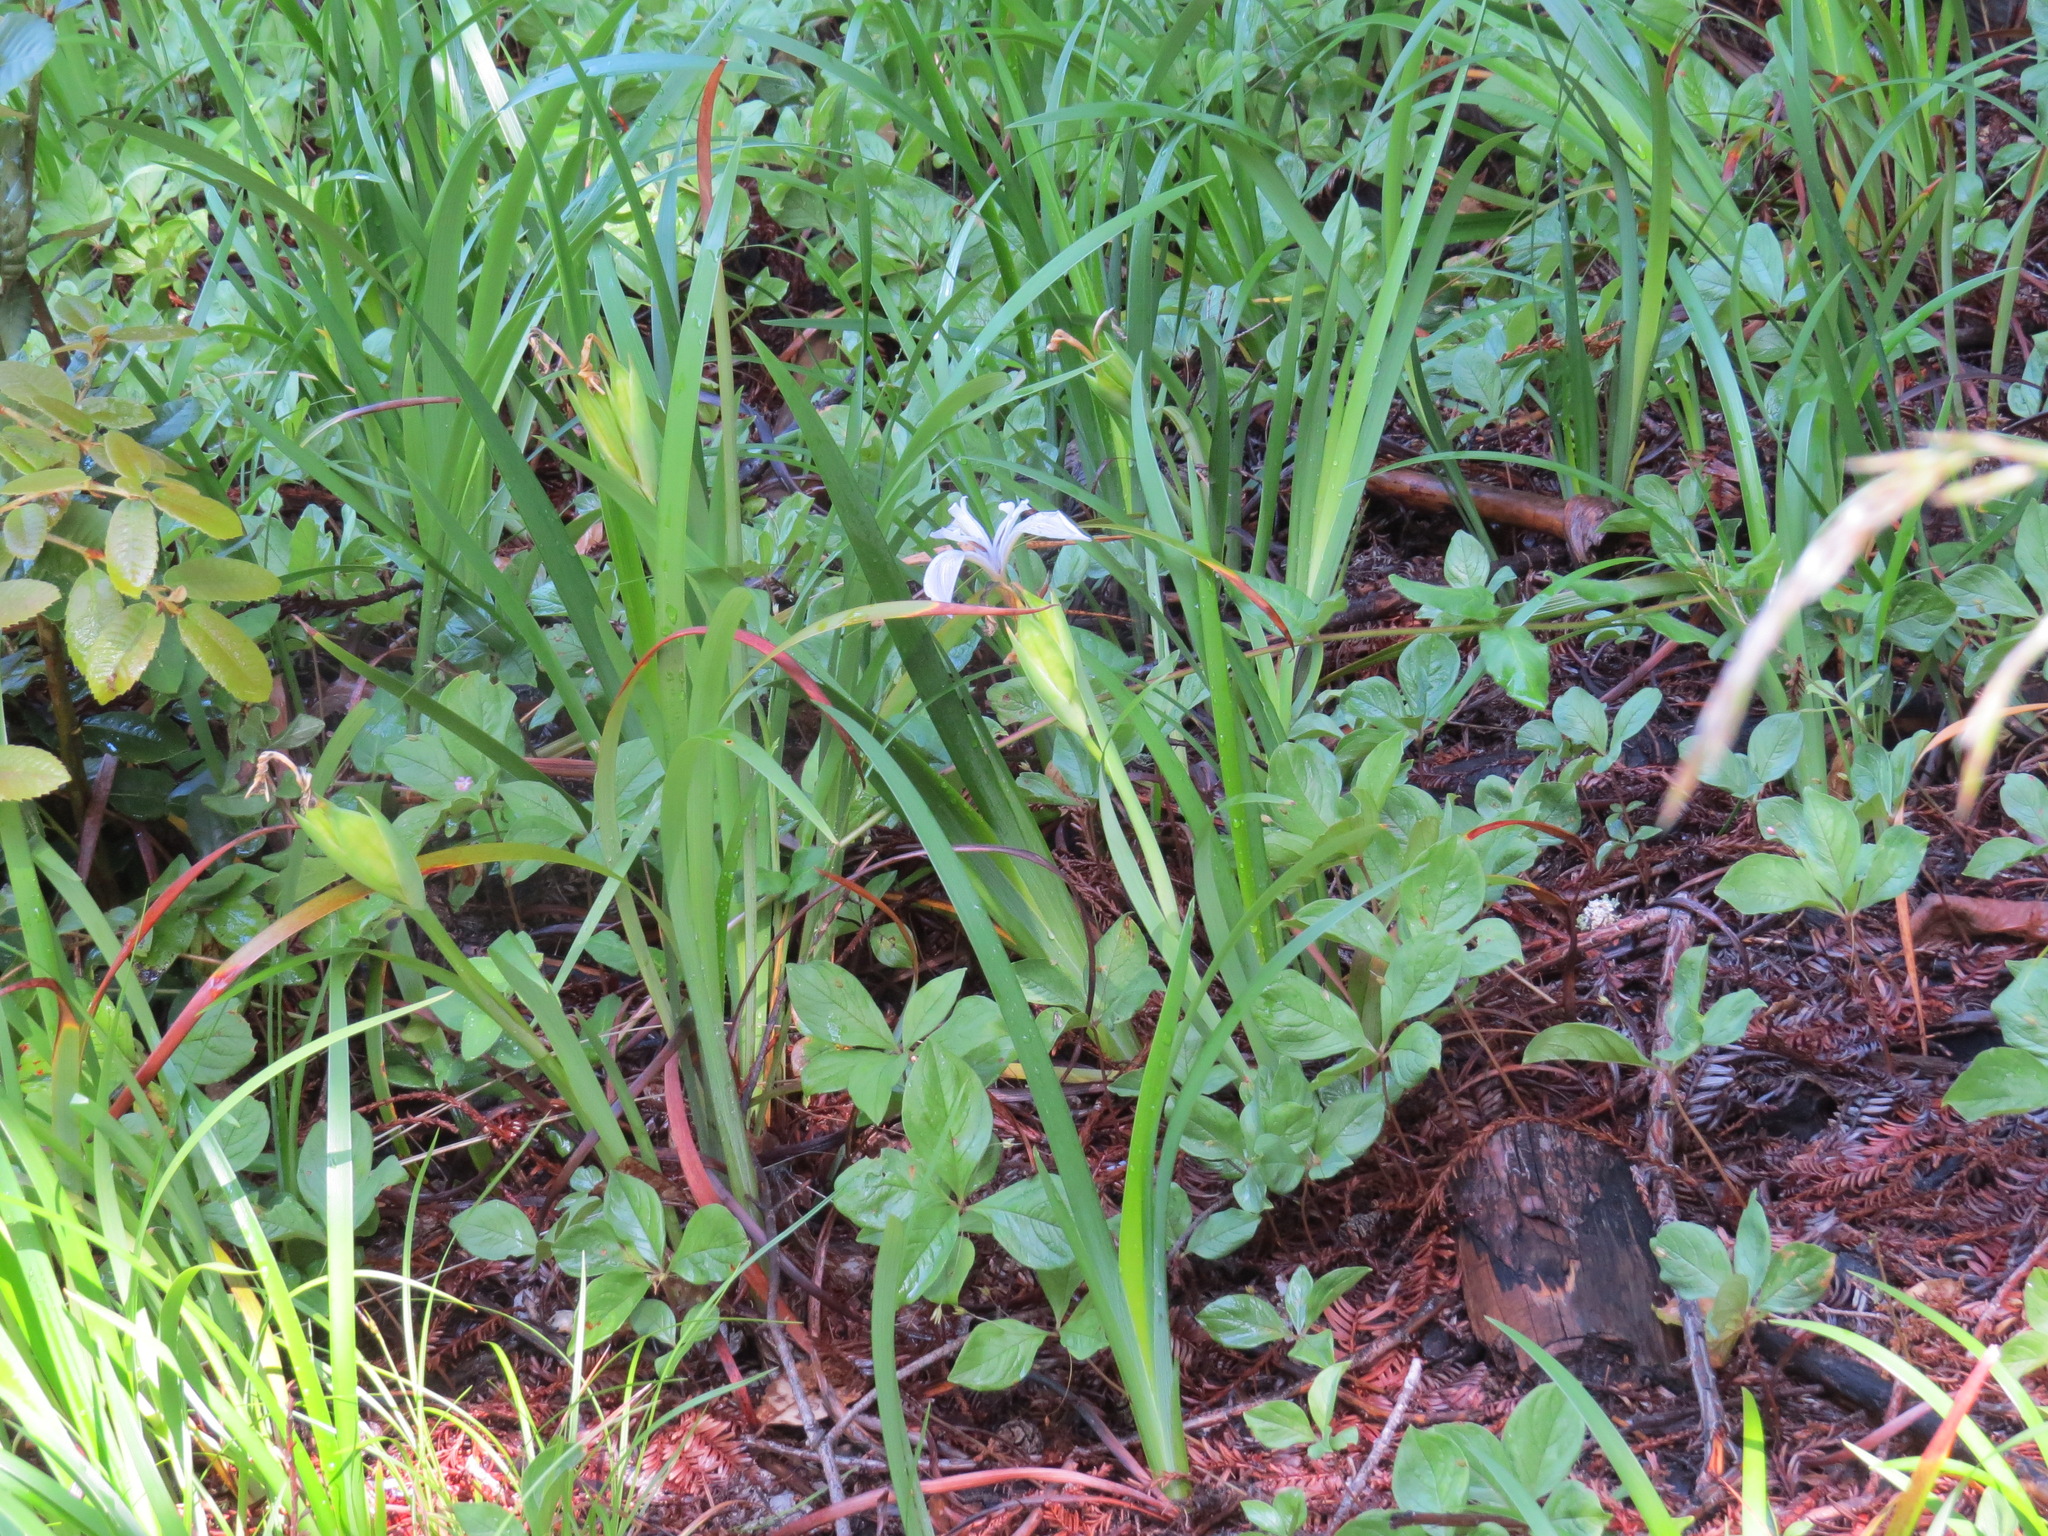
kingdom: Plantae
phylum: Tracheophyta
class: Liliopsida
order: Asparagales
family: Iridaceae
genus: Iris
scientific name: Iris douglasiana
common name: Marin iris
